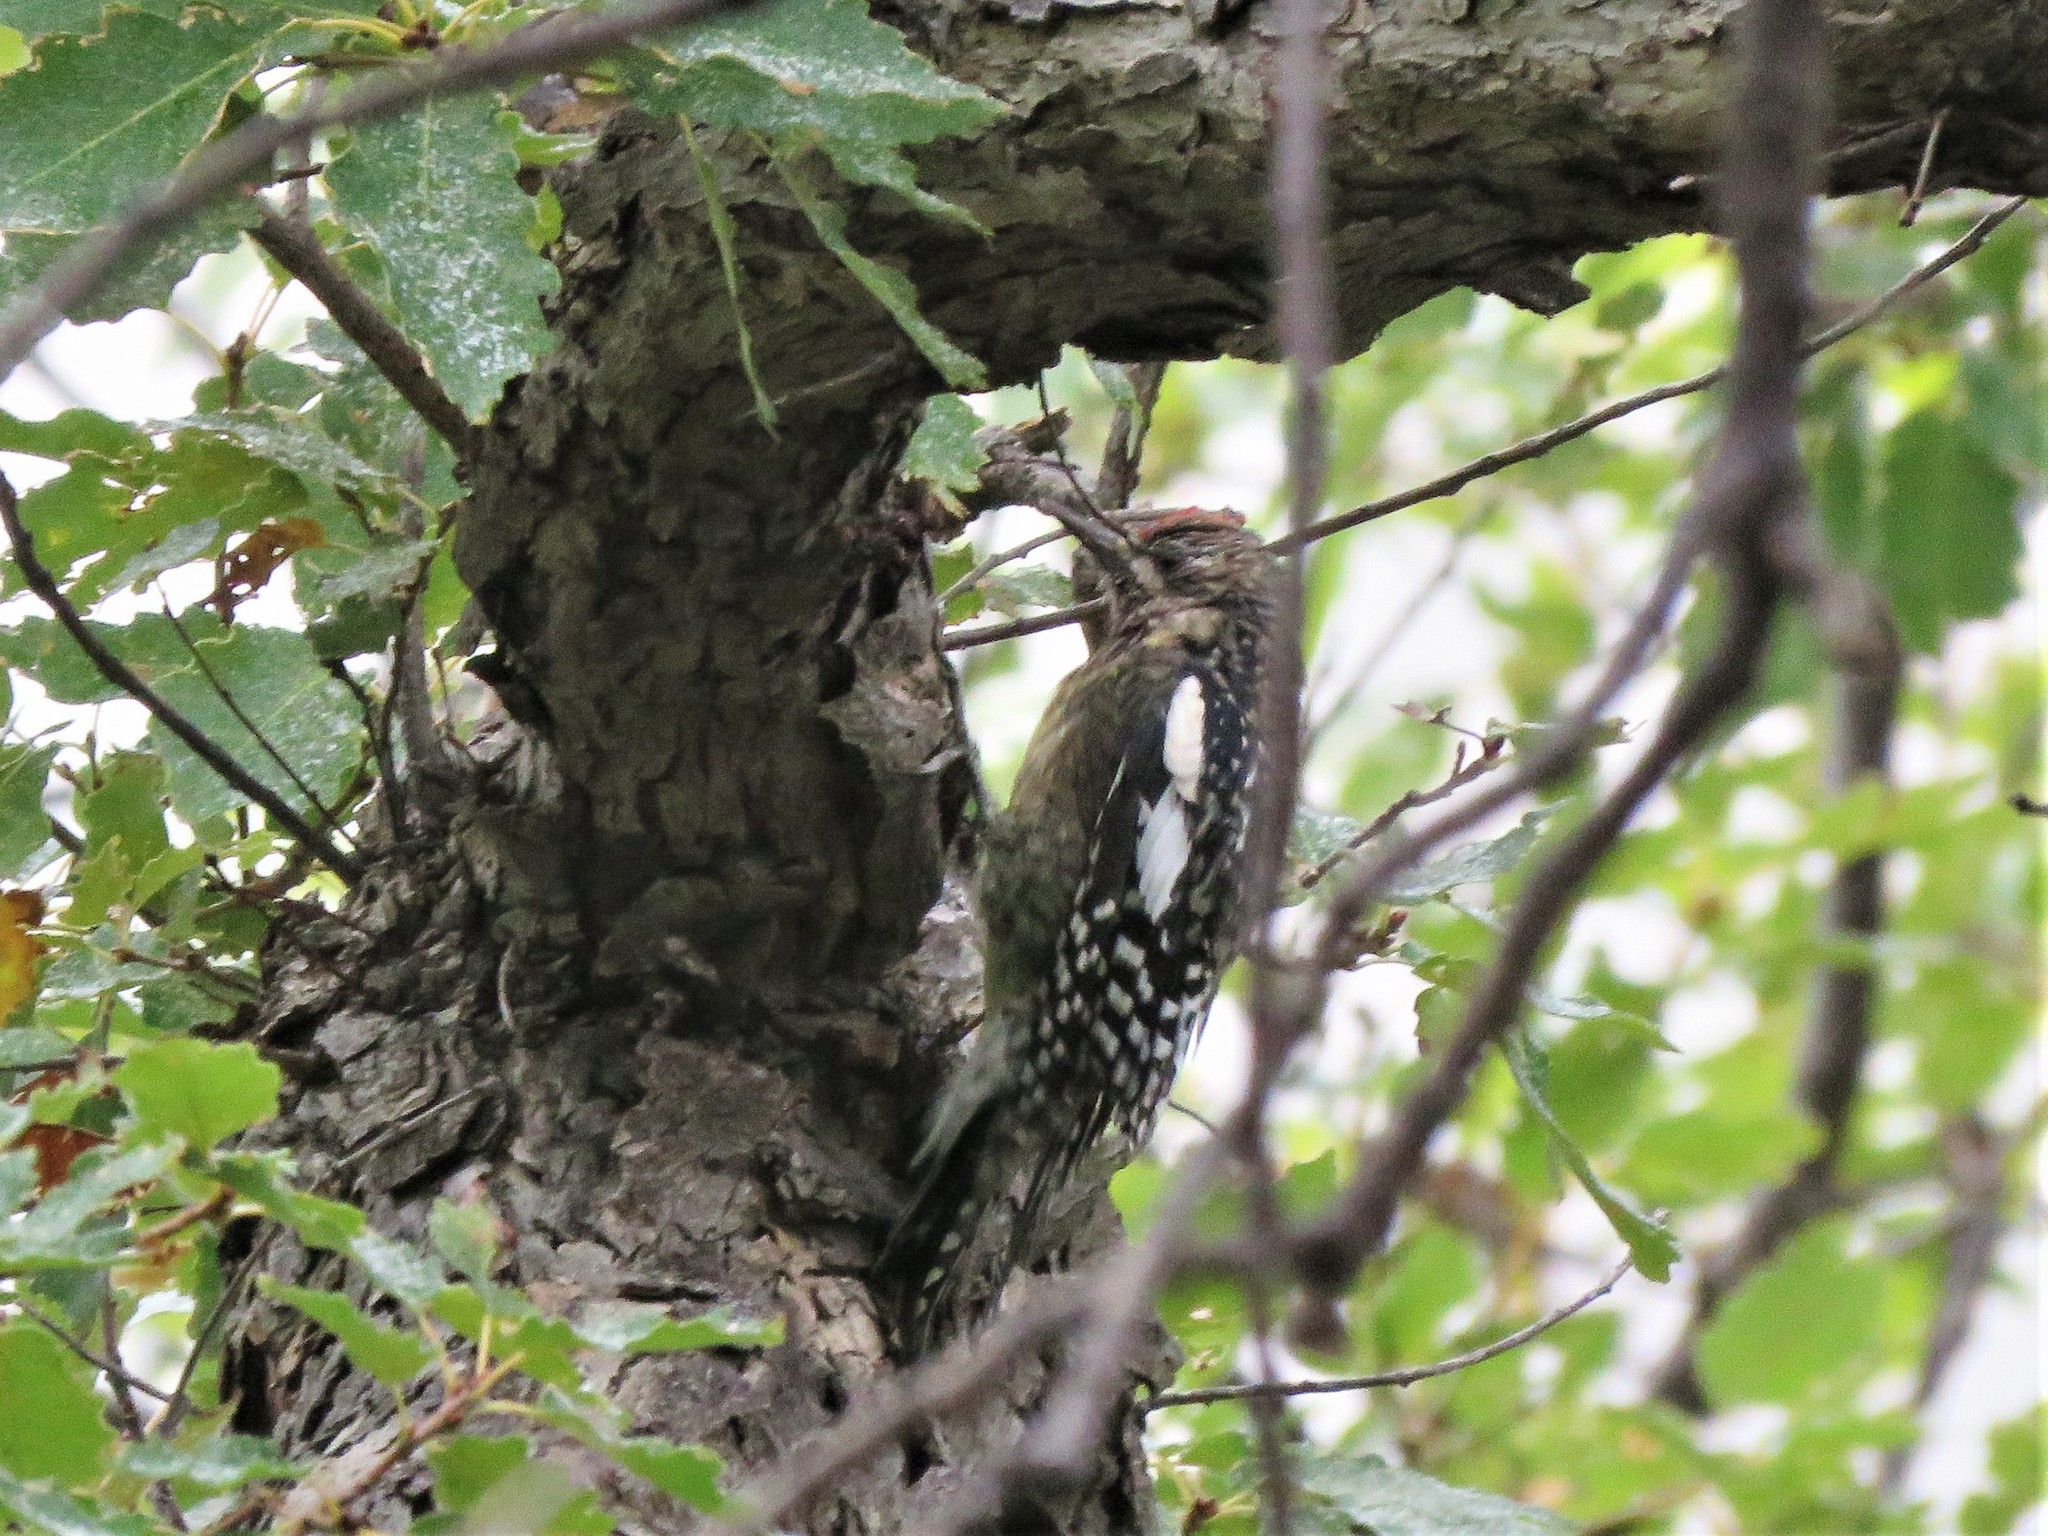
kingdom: Animalia
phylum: Chordata
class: Aves
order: Piciformes
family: Picidae
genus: Sphyrapicus
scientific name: Sphyrapicus varius
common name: Yellow-bellied sapsucker
